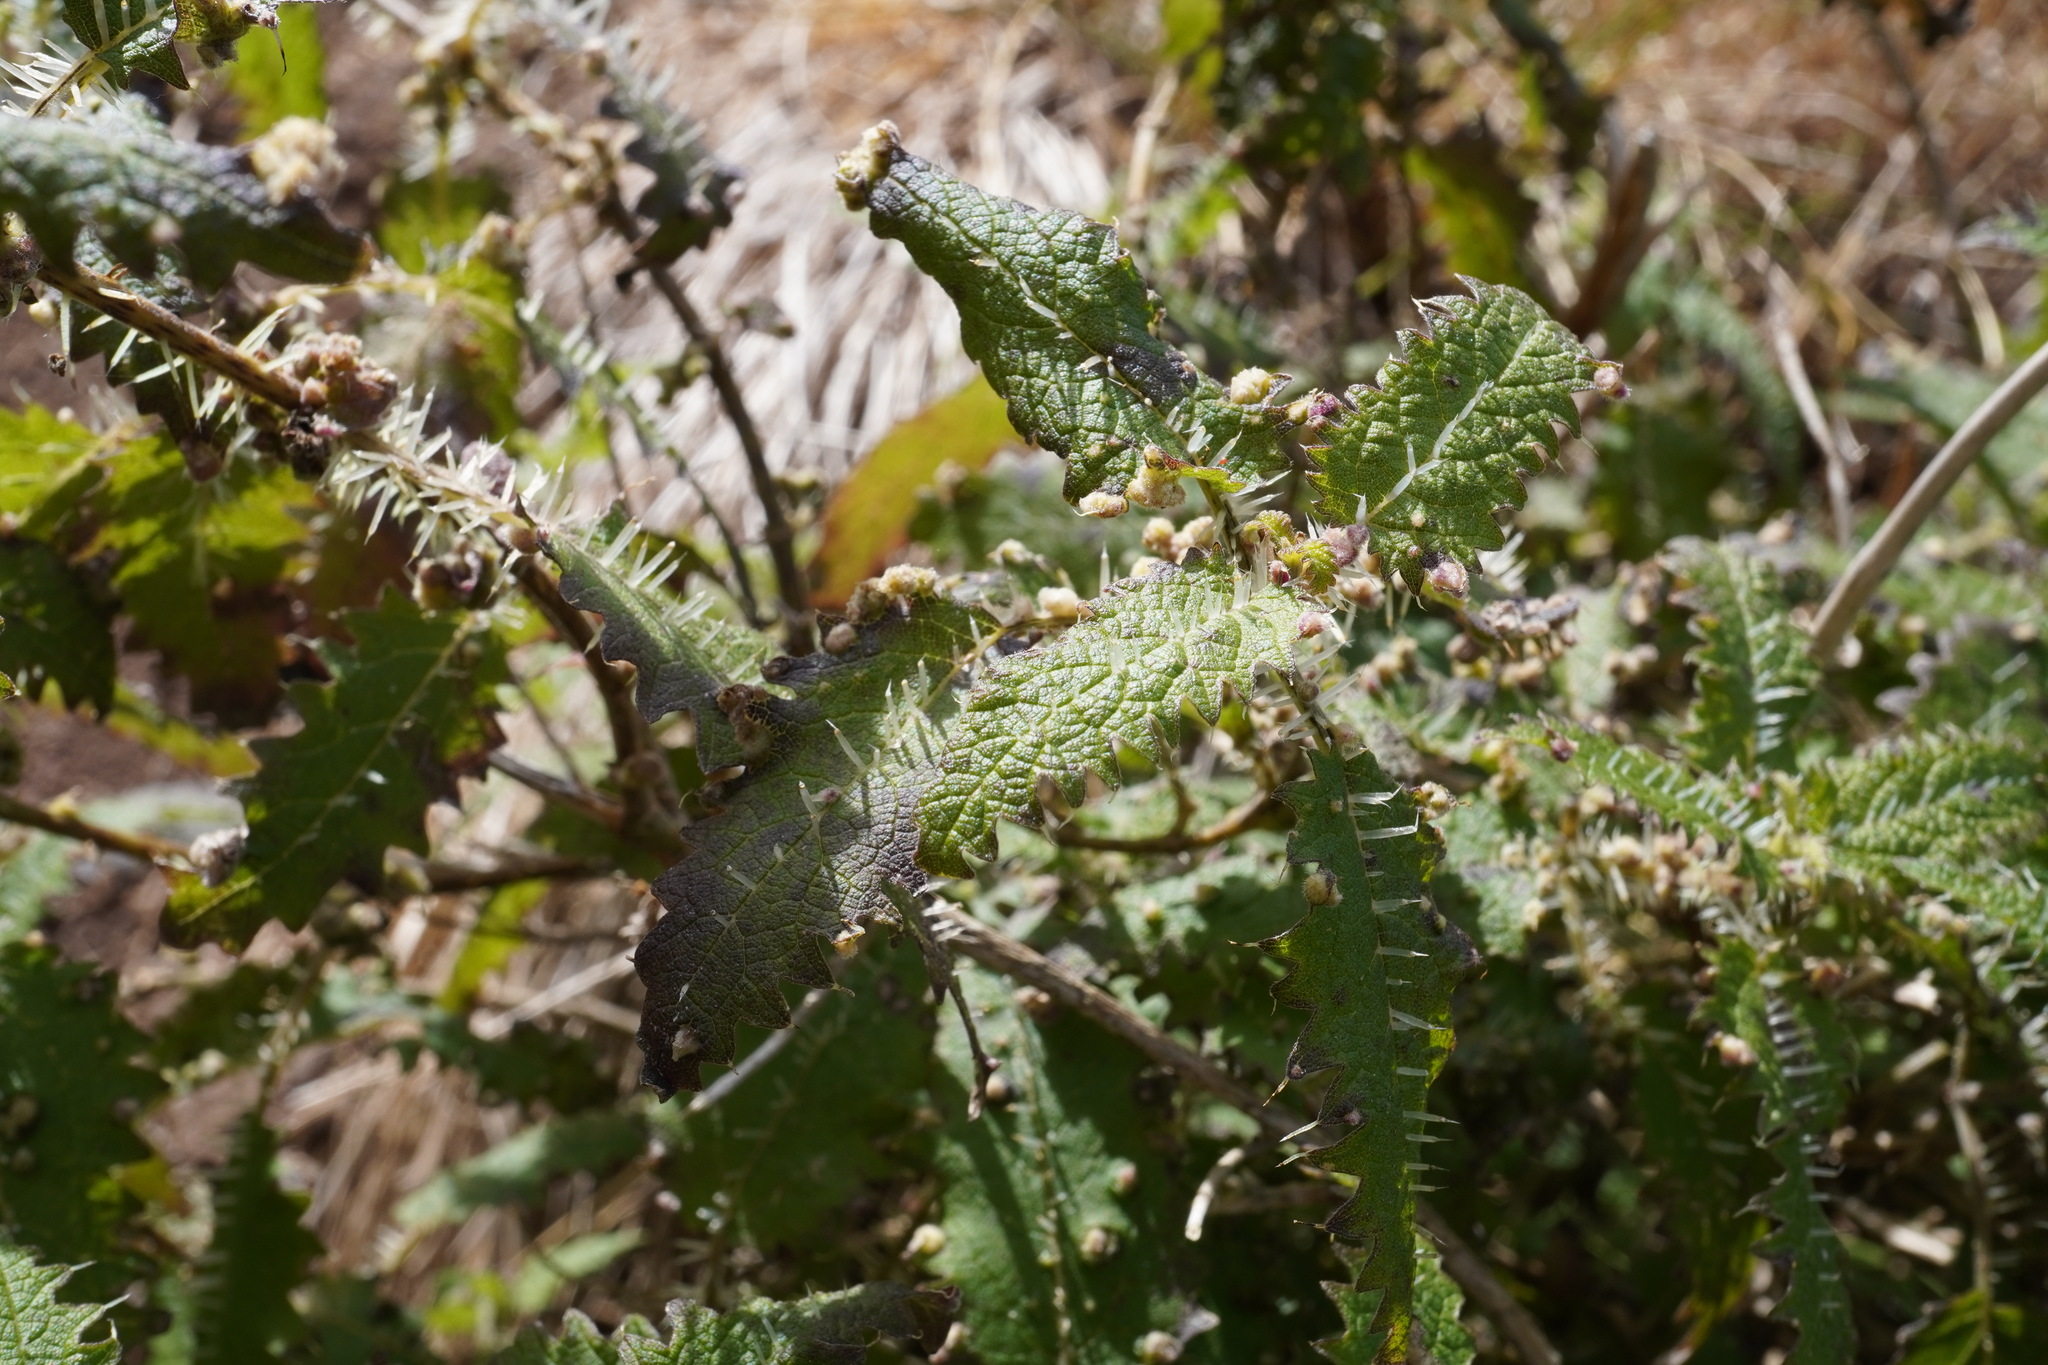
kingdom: Plantae
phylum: Tracheophyta
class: Magnoliopsida
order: Rosales
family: Urticaceae
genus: Urtica
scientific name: Urtica ferox
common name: Tree nettle
